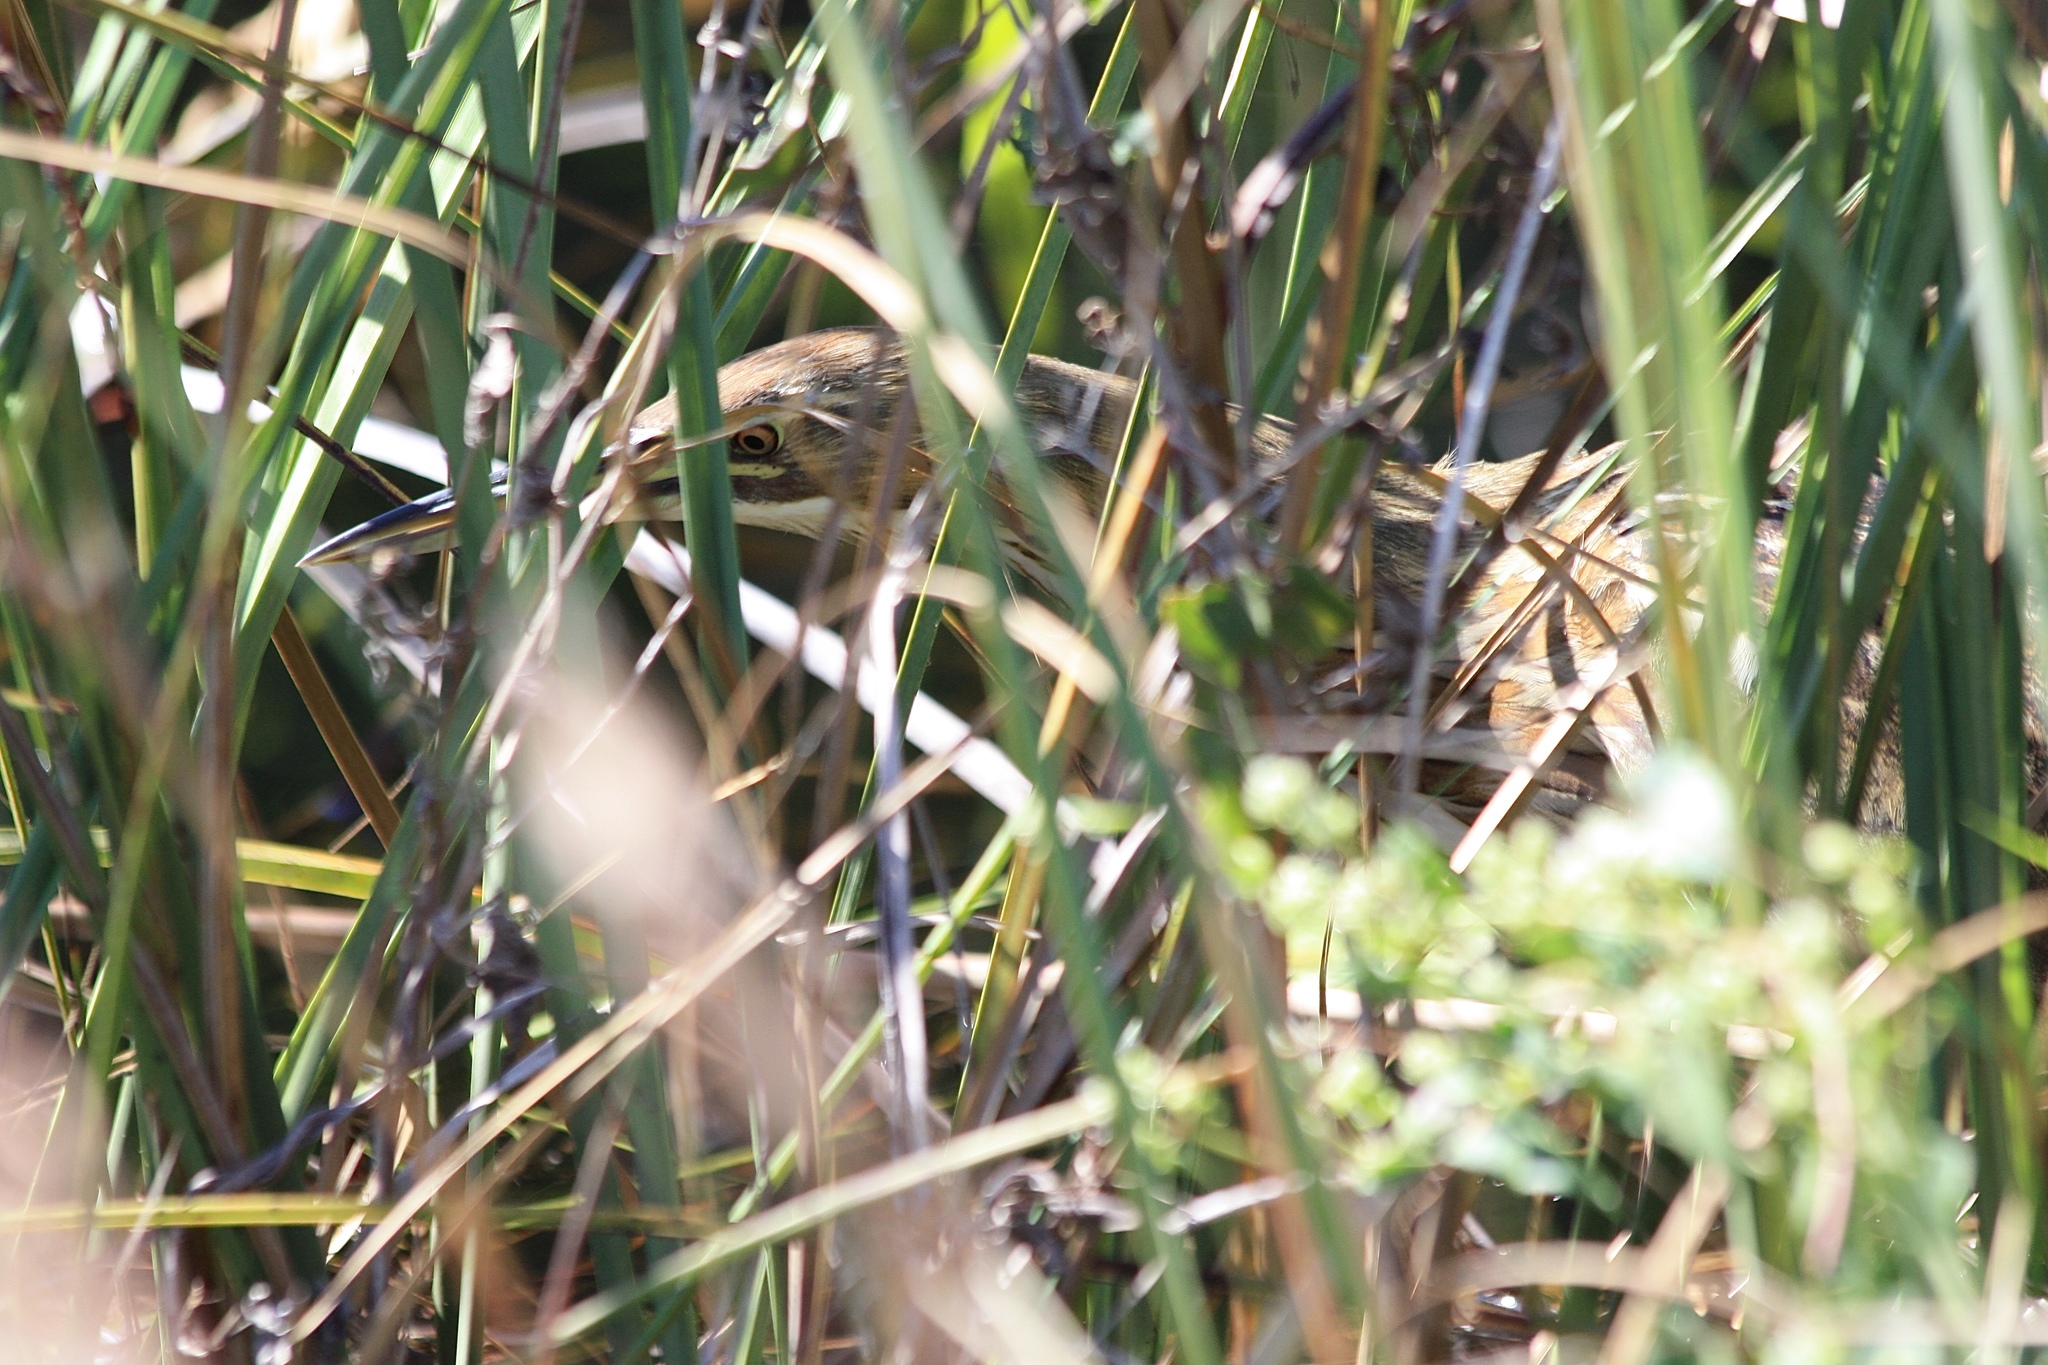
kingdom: Animalia
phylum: Chordata
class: Aves
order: Pelecaniformes
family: Ardeidae
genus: Botaurus
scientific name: Botaurus lentiginosus
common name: American bittern
